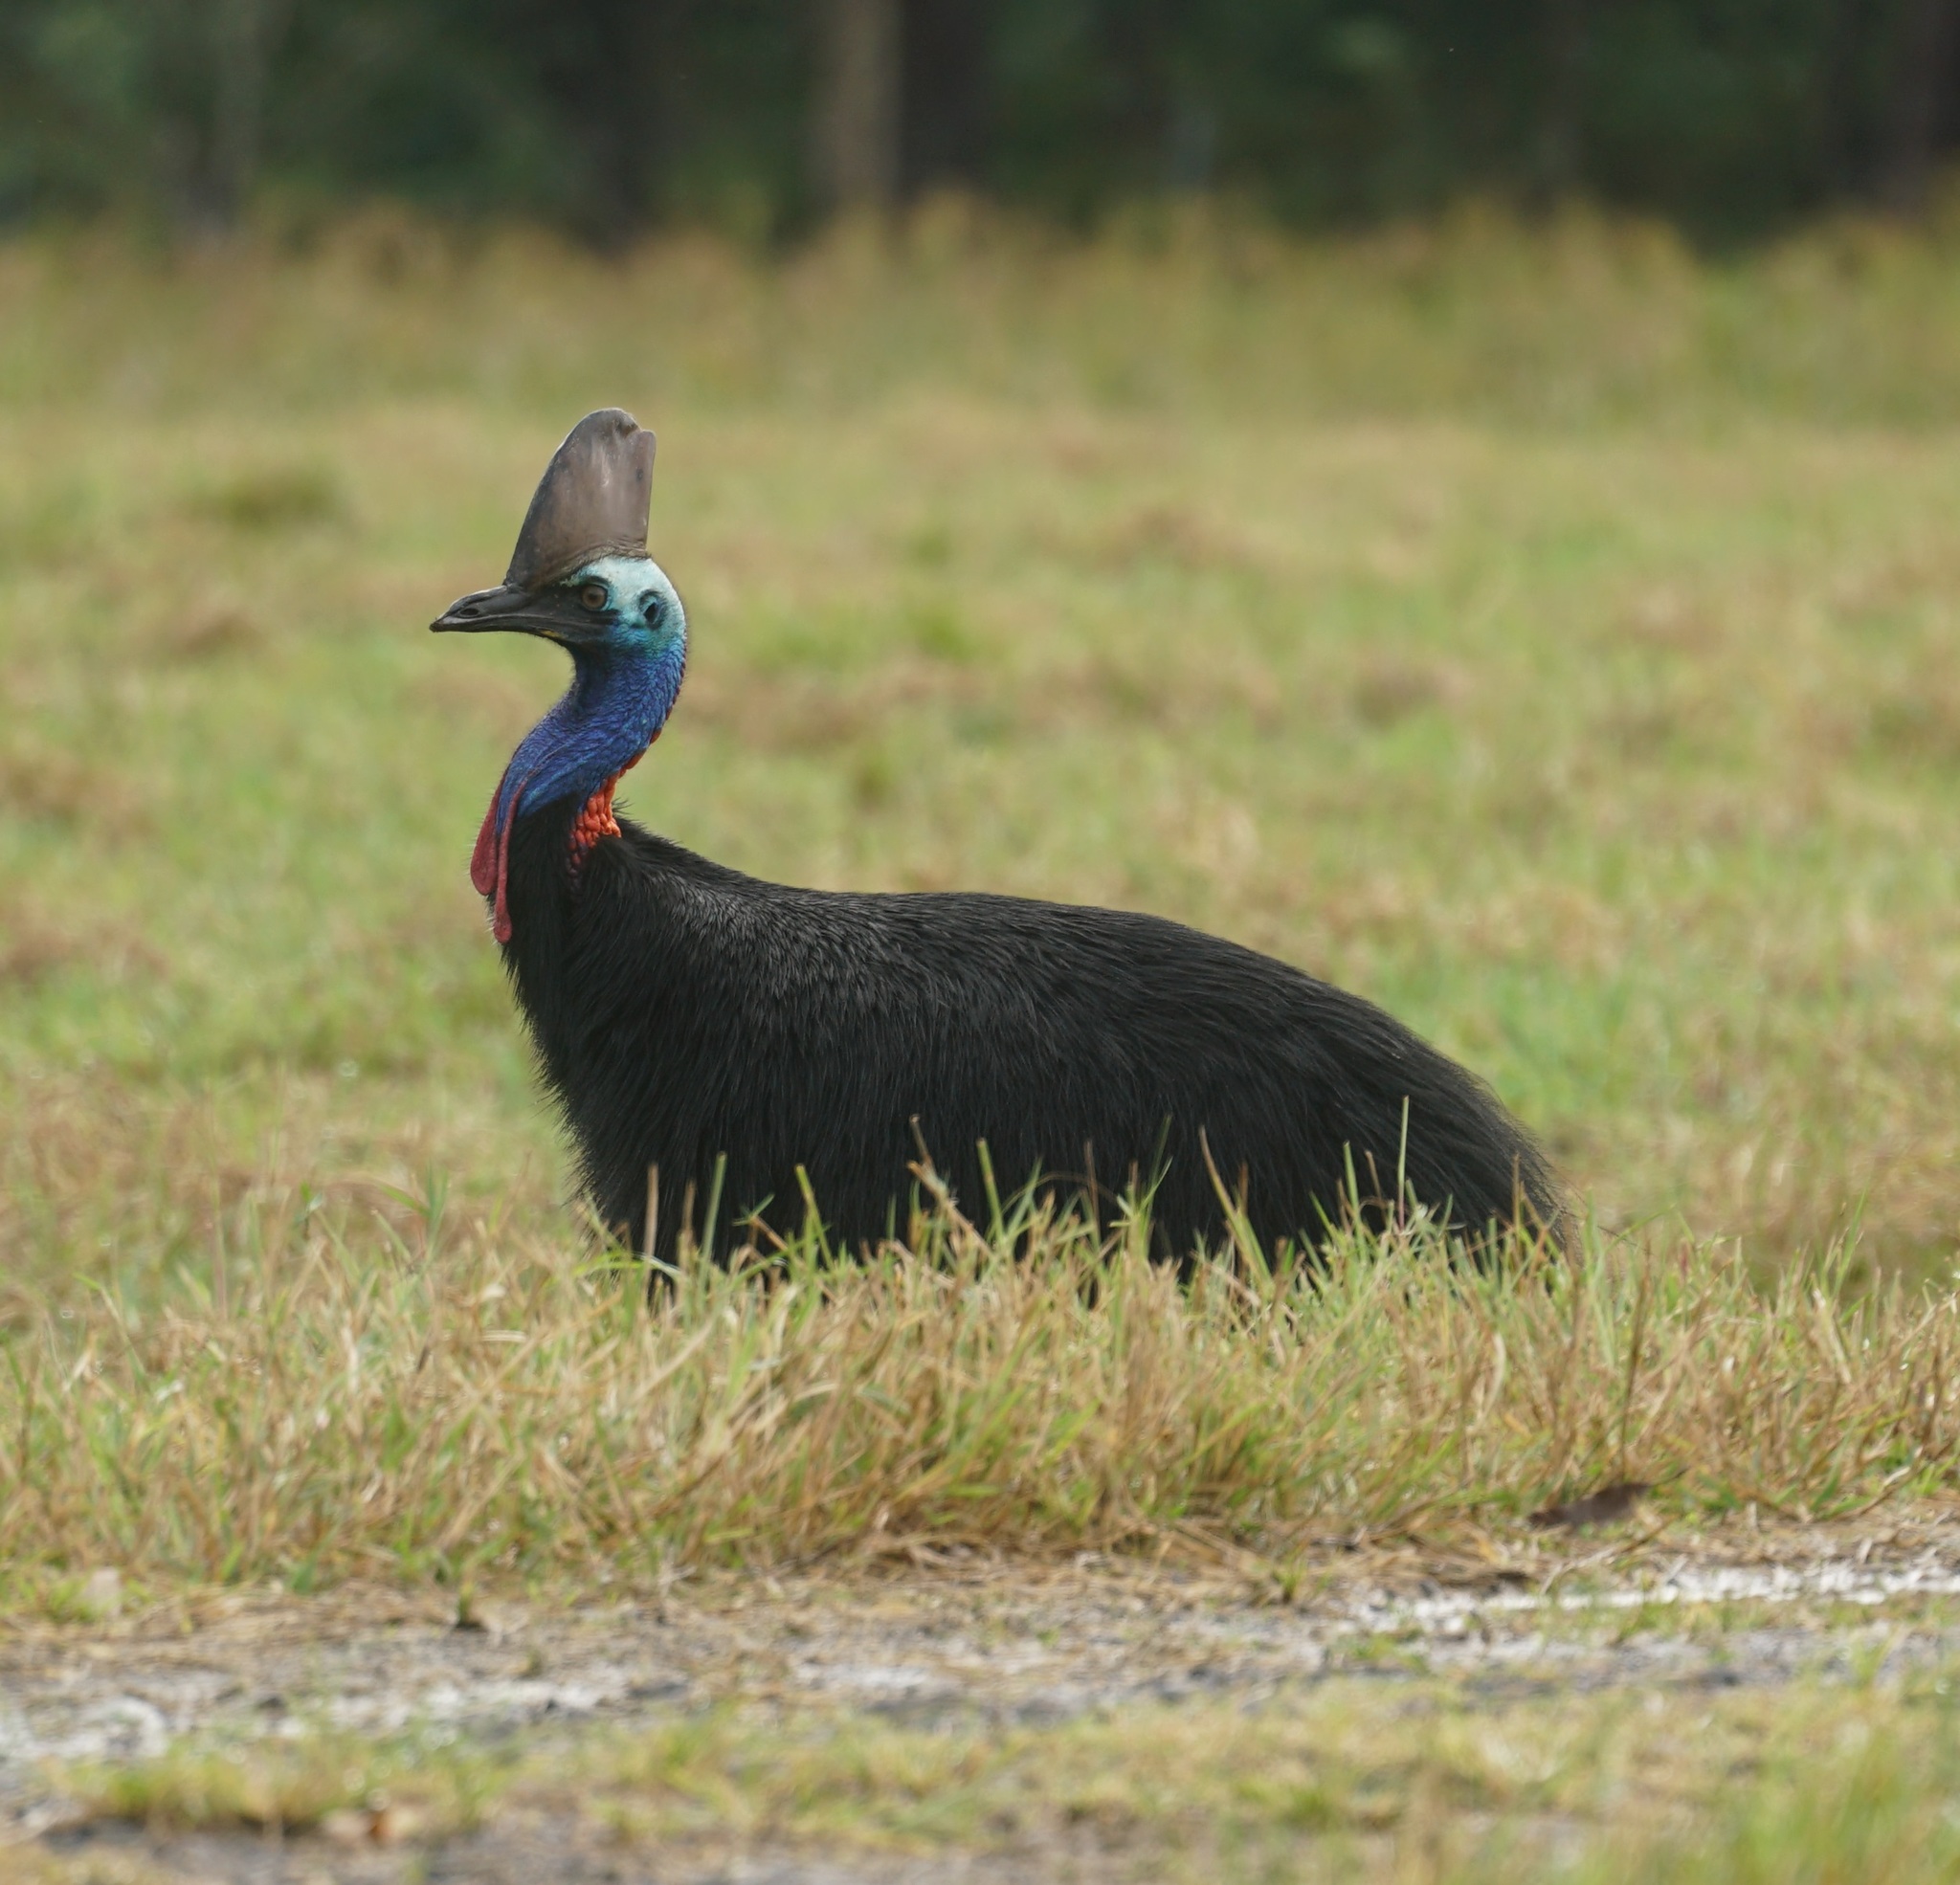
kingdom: Animalia
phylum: Chordata
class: Aves
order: Casuariiformes
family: Casuariidae
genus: Casuarius
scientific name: Casuarius casuarius
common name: Southern cassowary
